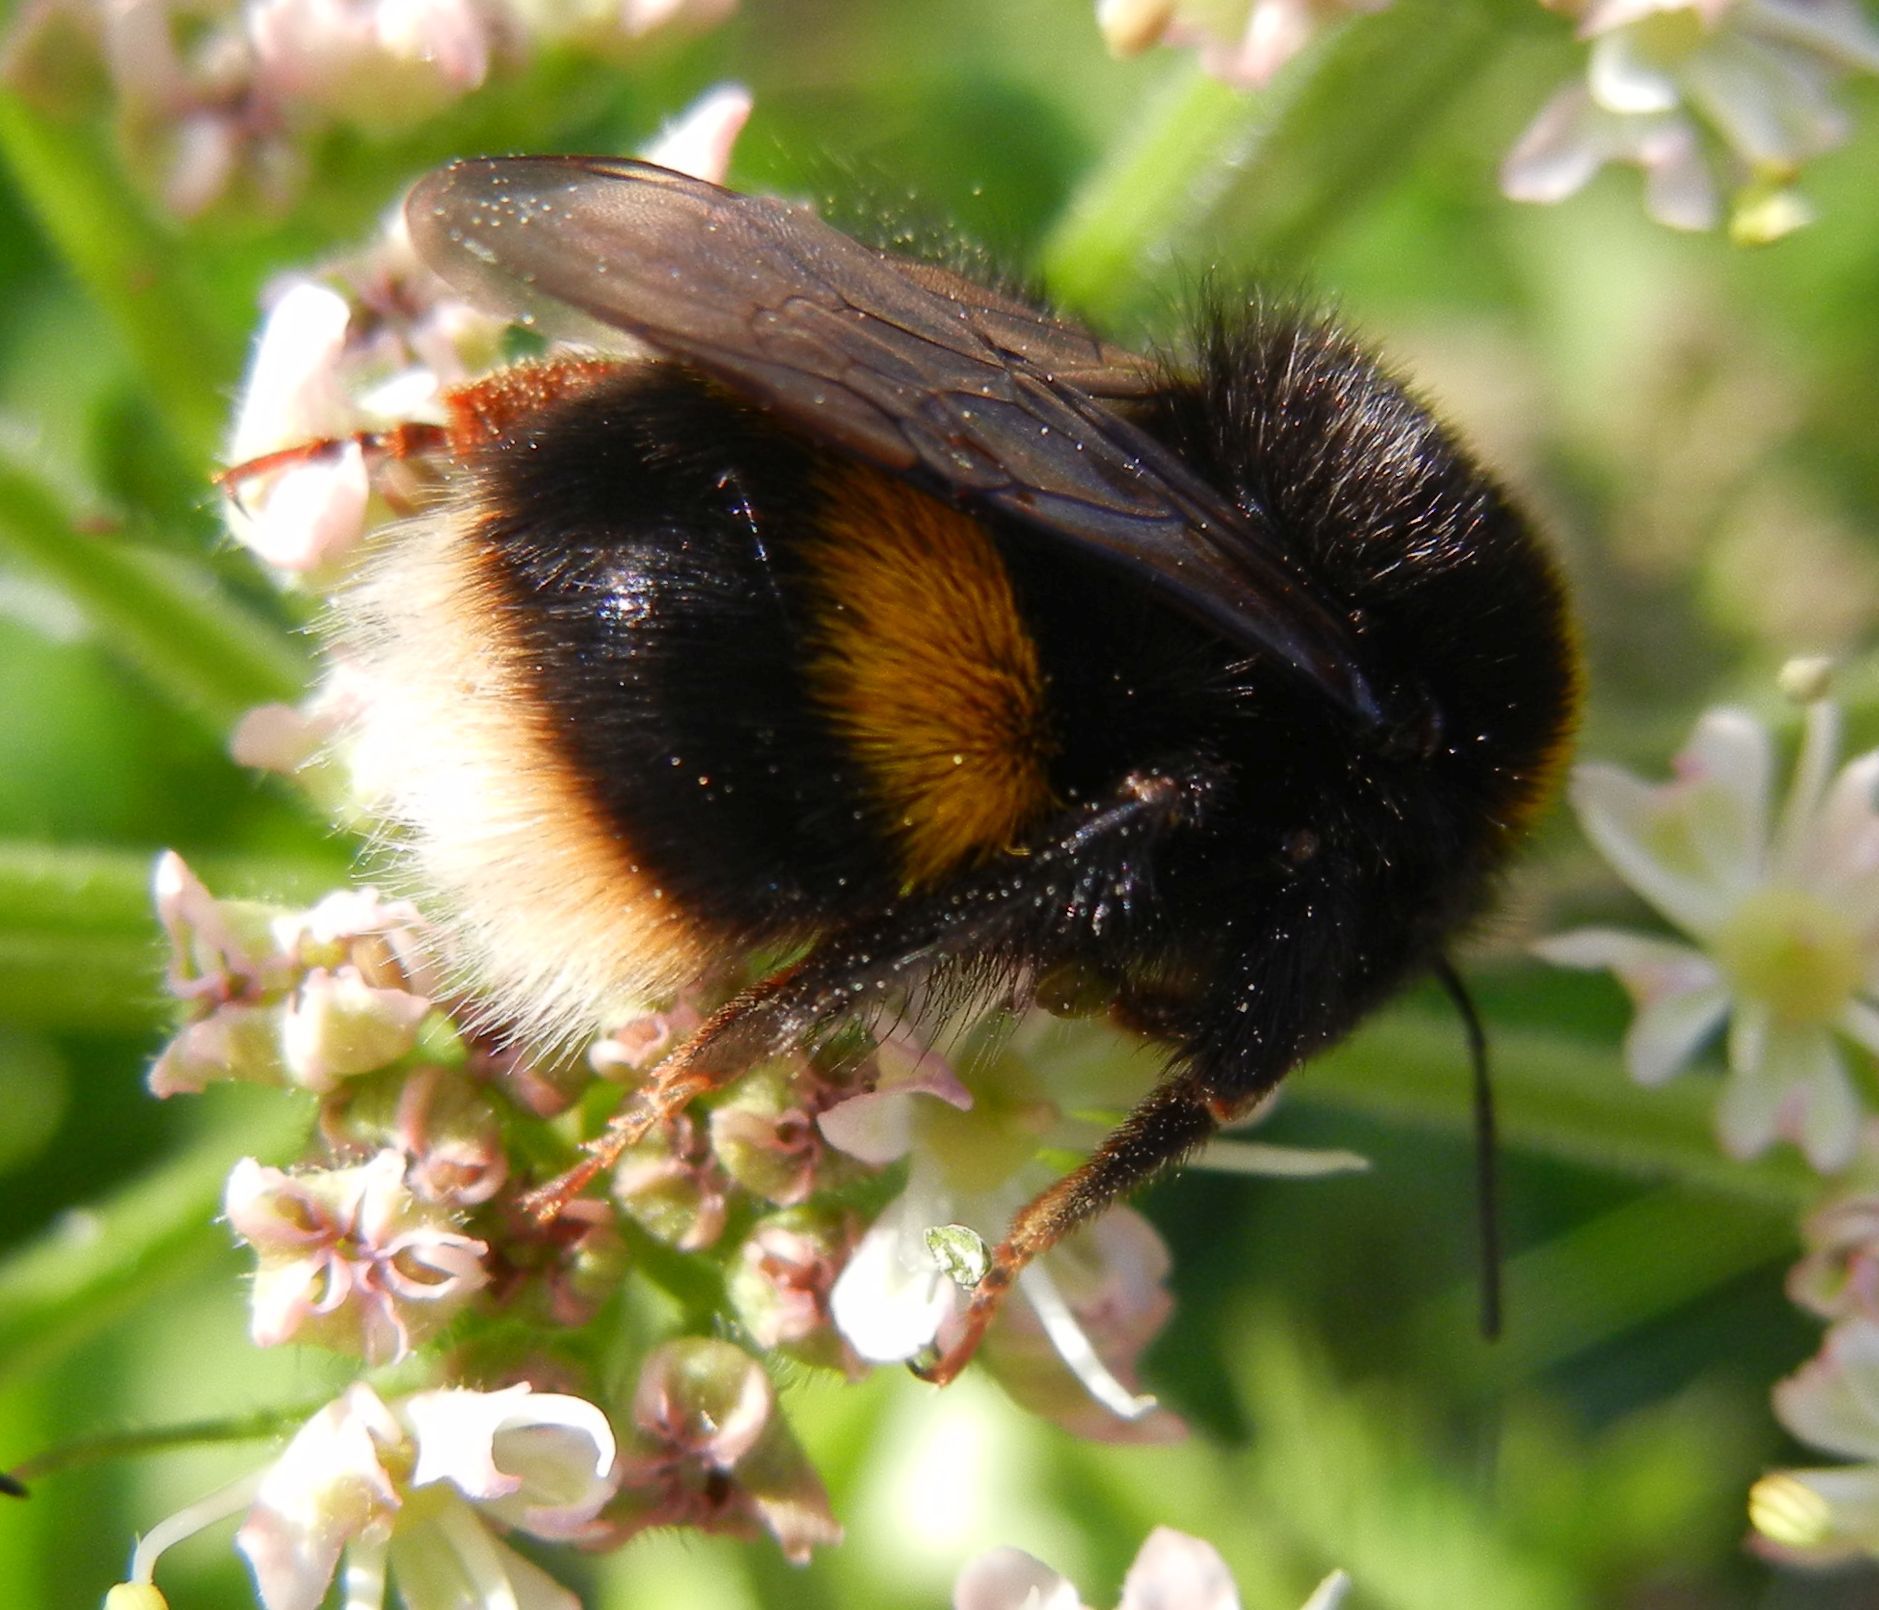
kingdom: Animalia
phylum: Arthropoda
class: Insecta
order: Hymenoptera
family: Apidae
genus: Bombus
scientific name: Bombus terrestris
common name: Buff-tailed bumblebee
